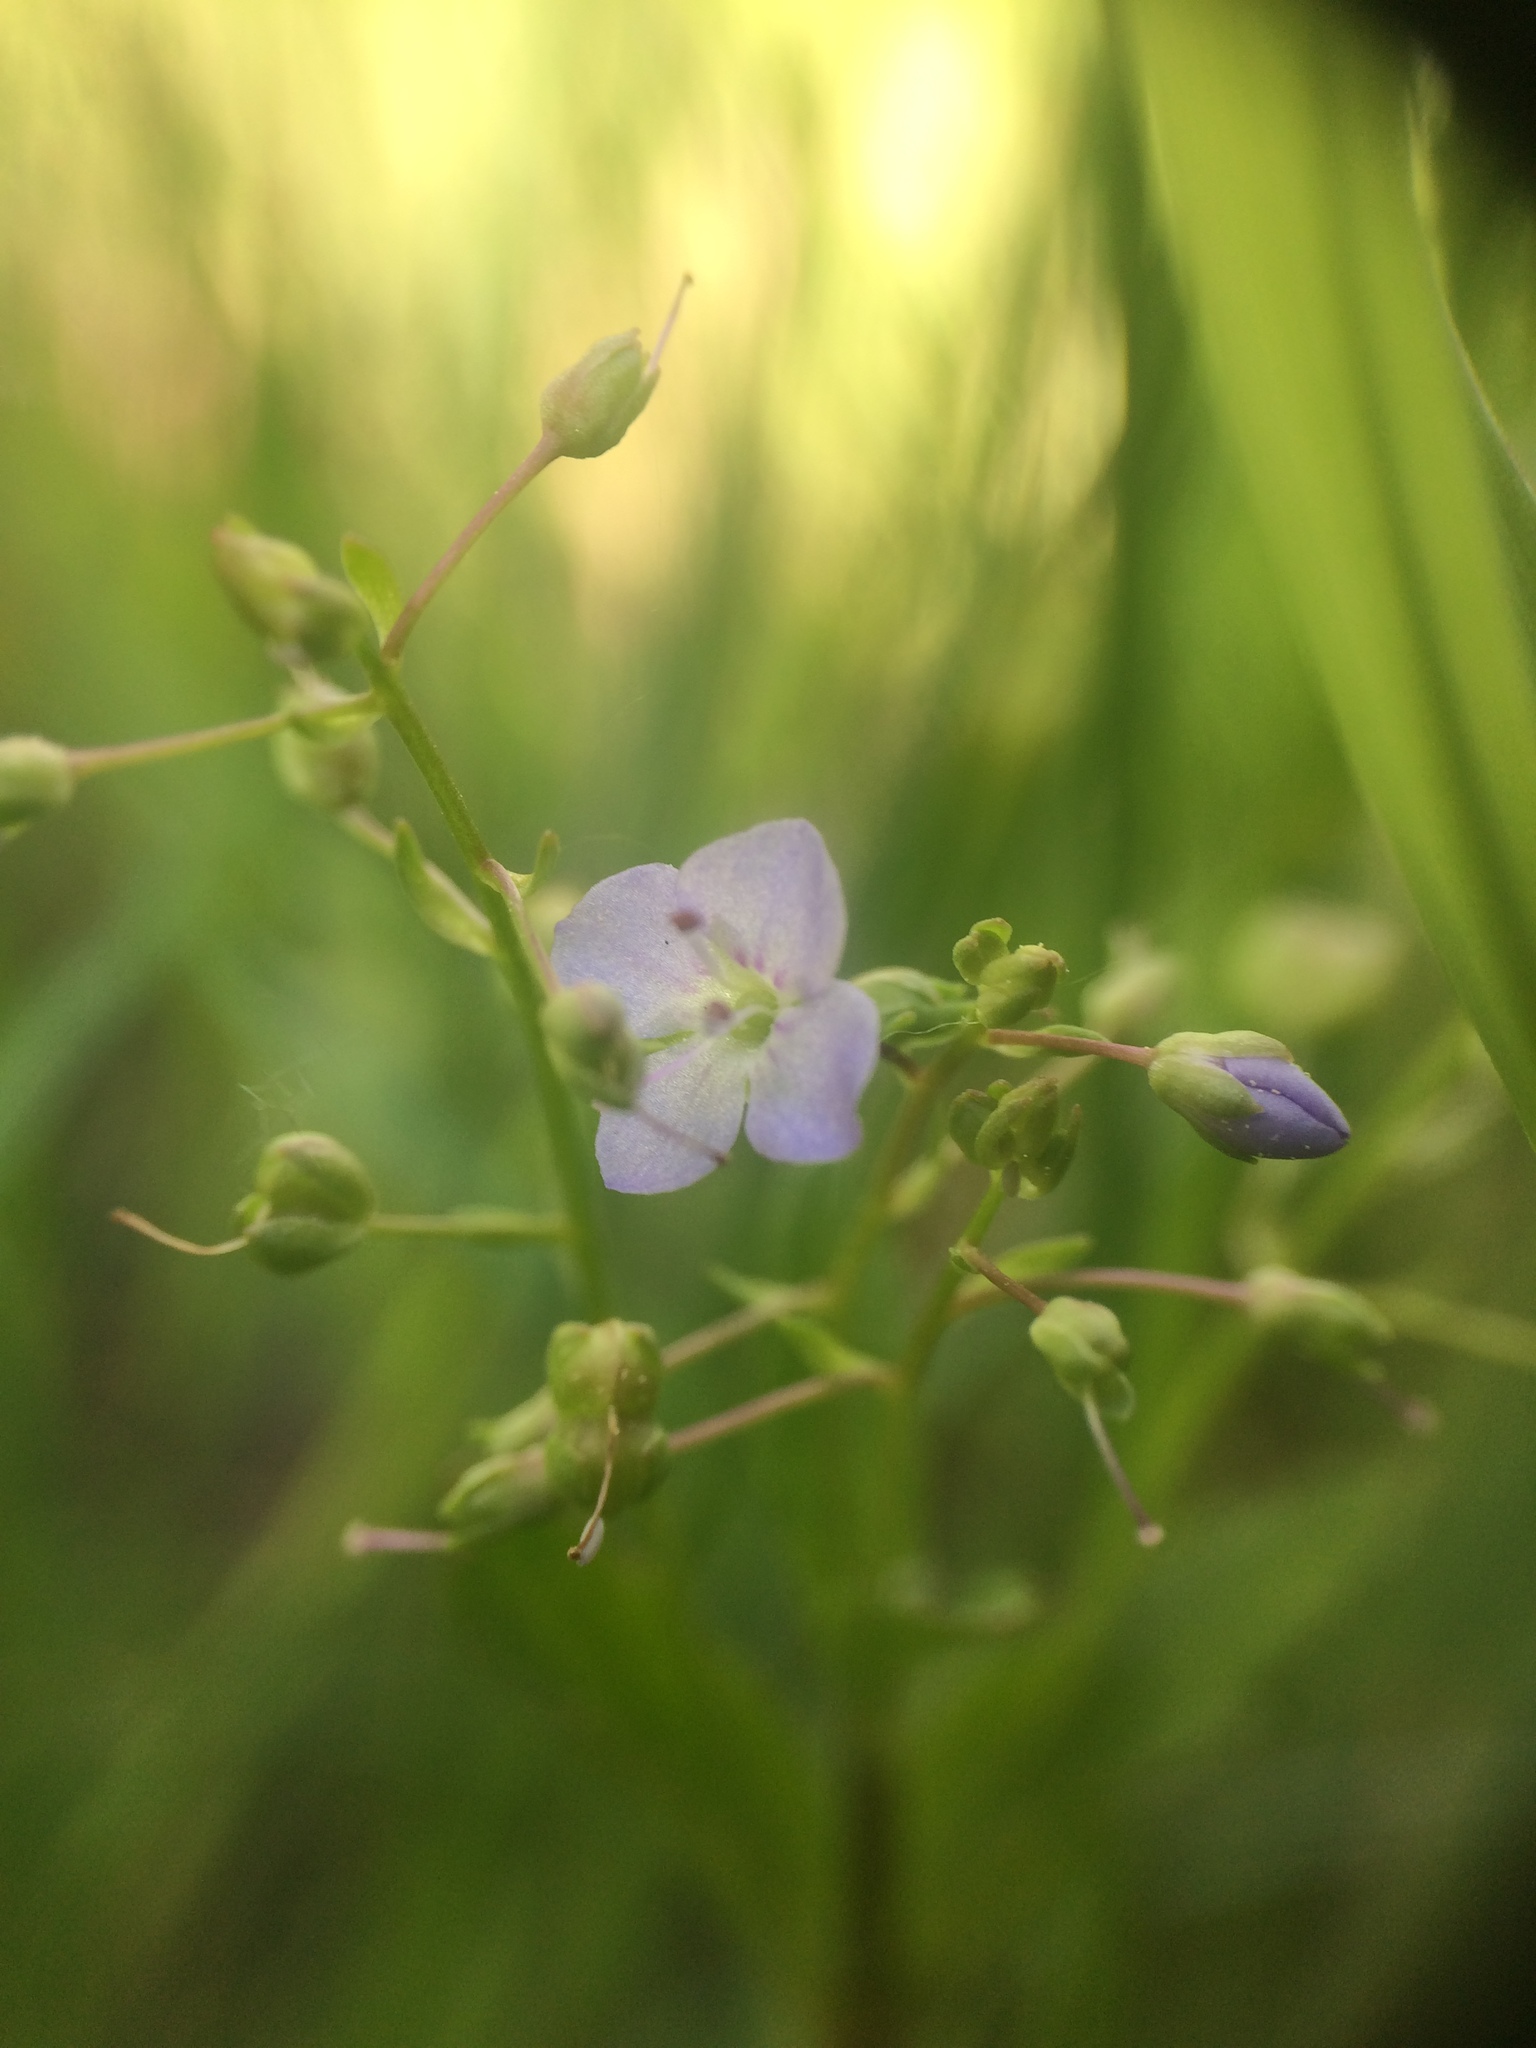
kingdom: Plantae
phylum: Tracheophyta
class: Magnoliopsida
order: Lamiales
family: Plantaginaceae
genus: Veronica
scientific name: Veronica americana
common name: American brooklime
